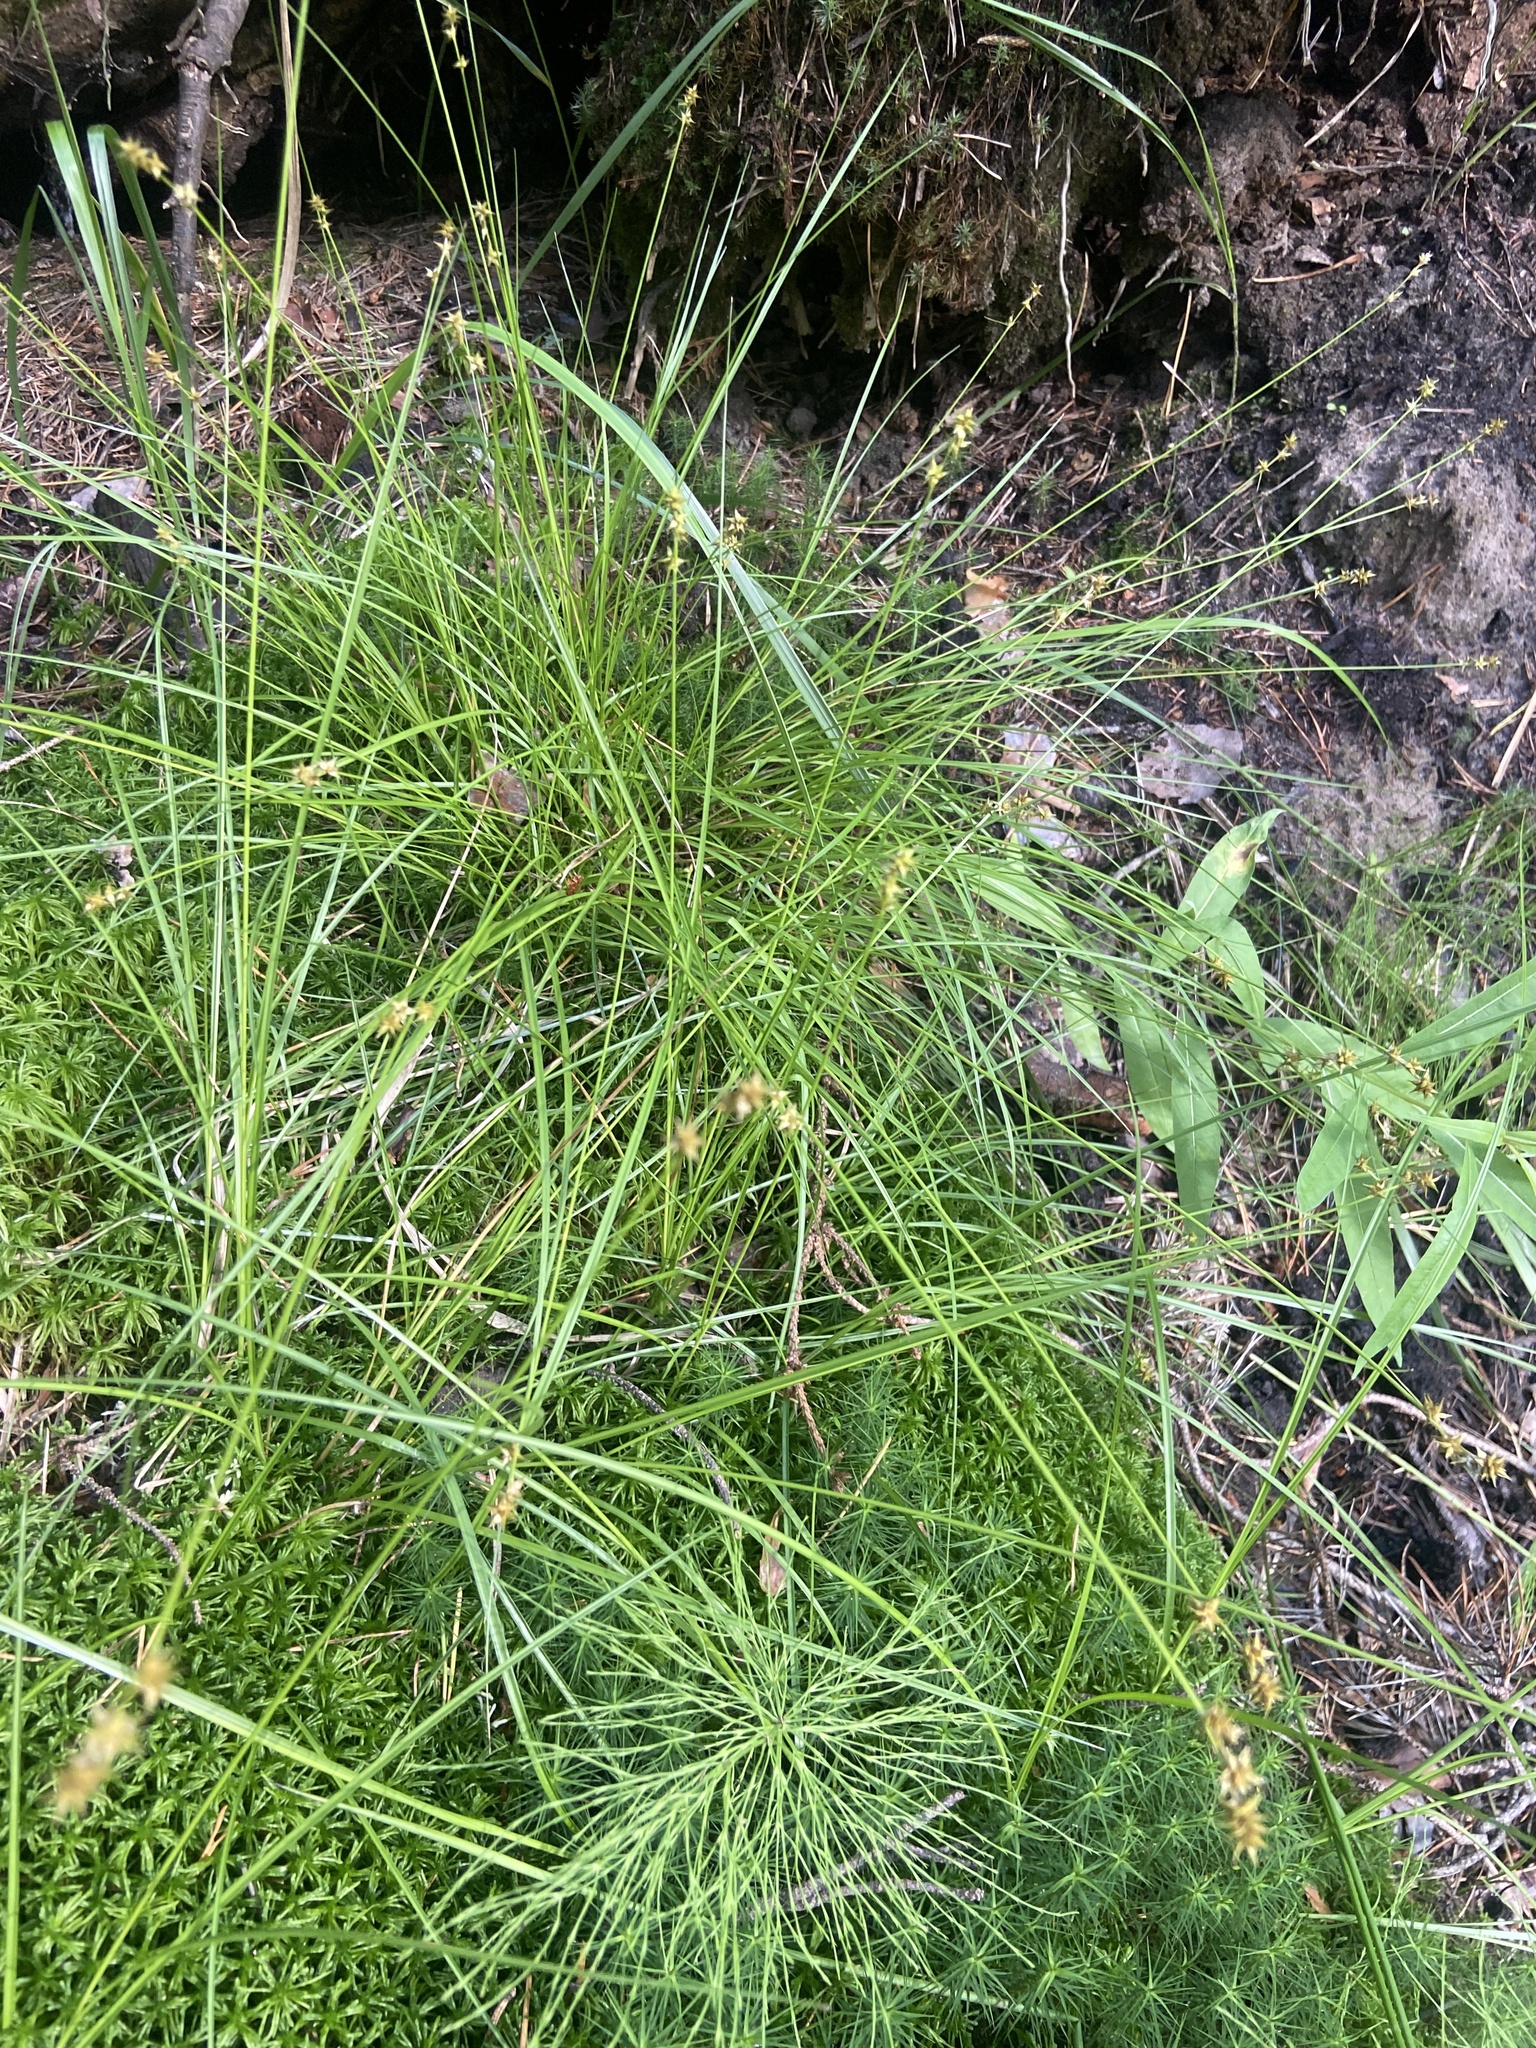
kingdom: Plantae
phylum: Tracheophyta
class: Liliopsida
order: Poales
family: Cyperaceae
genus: Carex
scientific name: Carex echinata
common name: Star sedge
